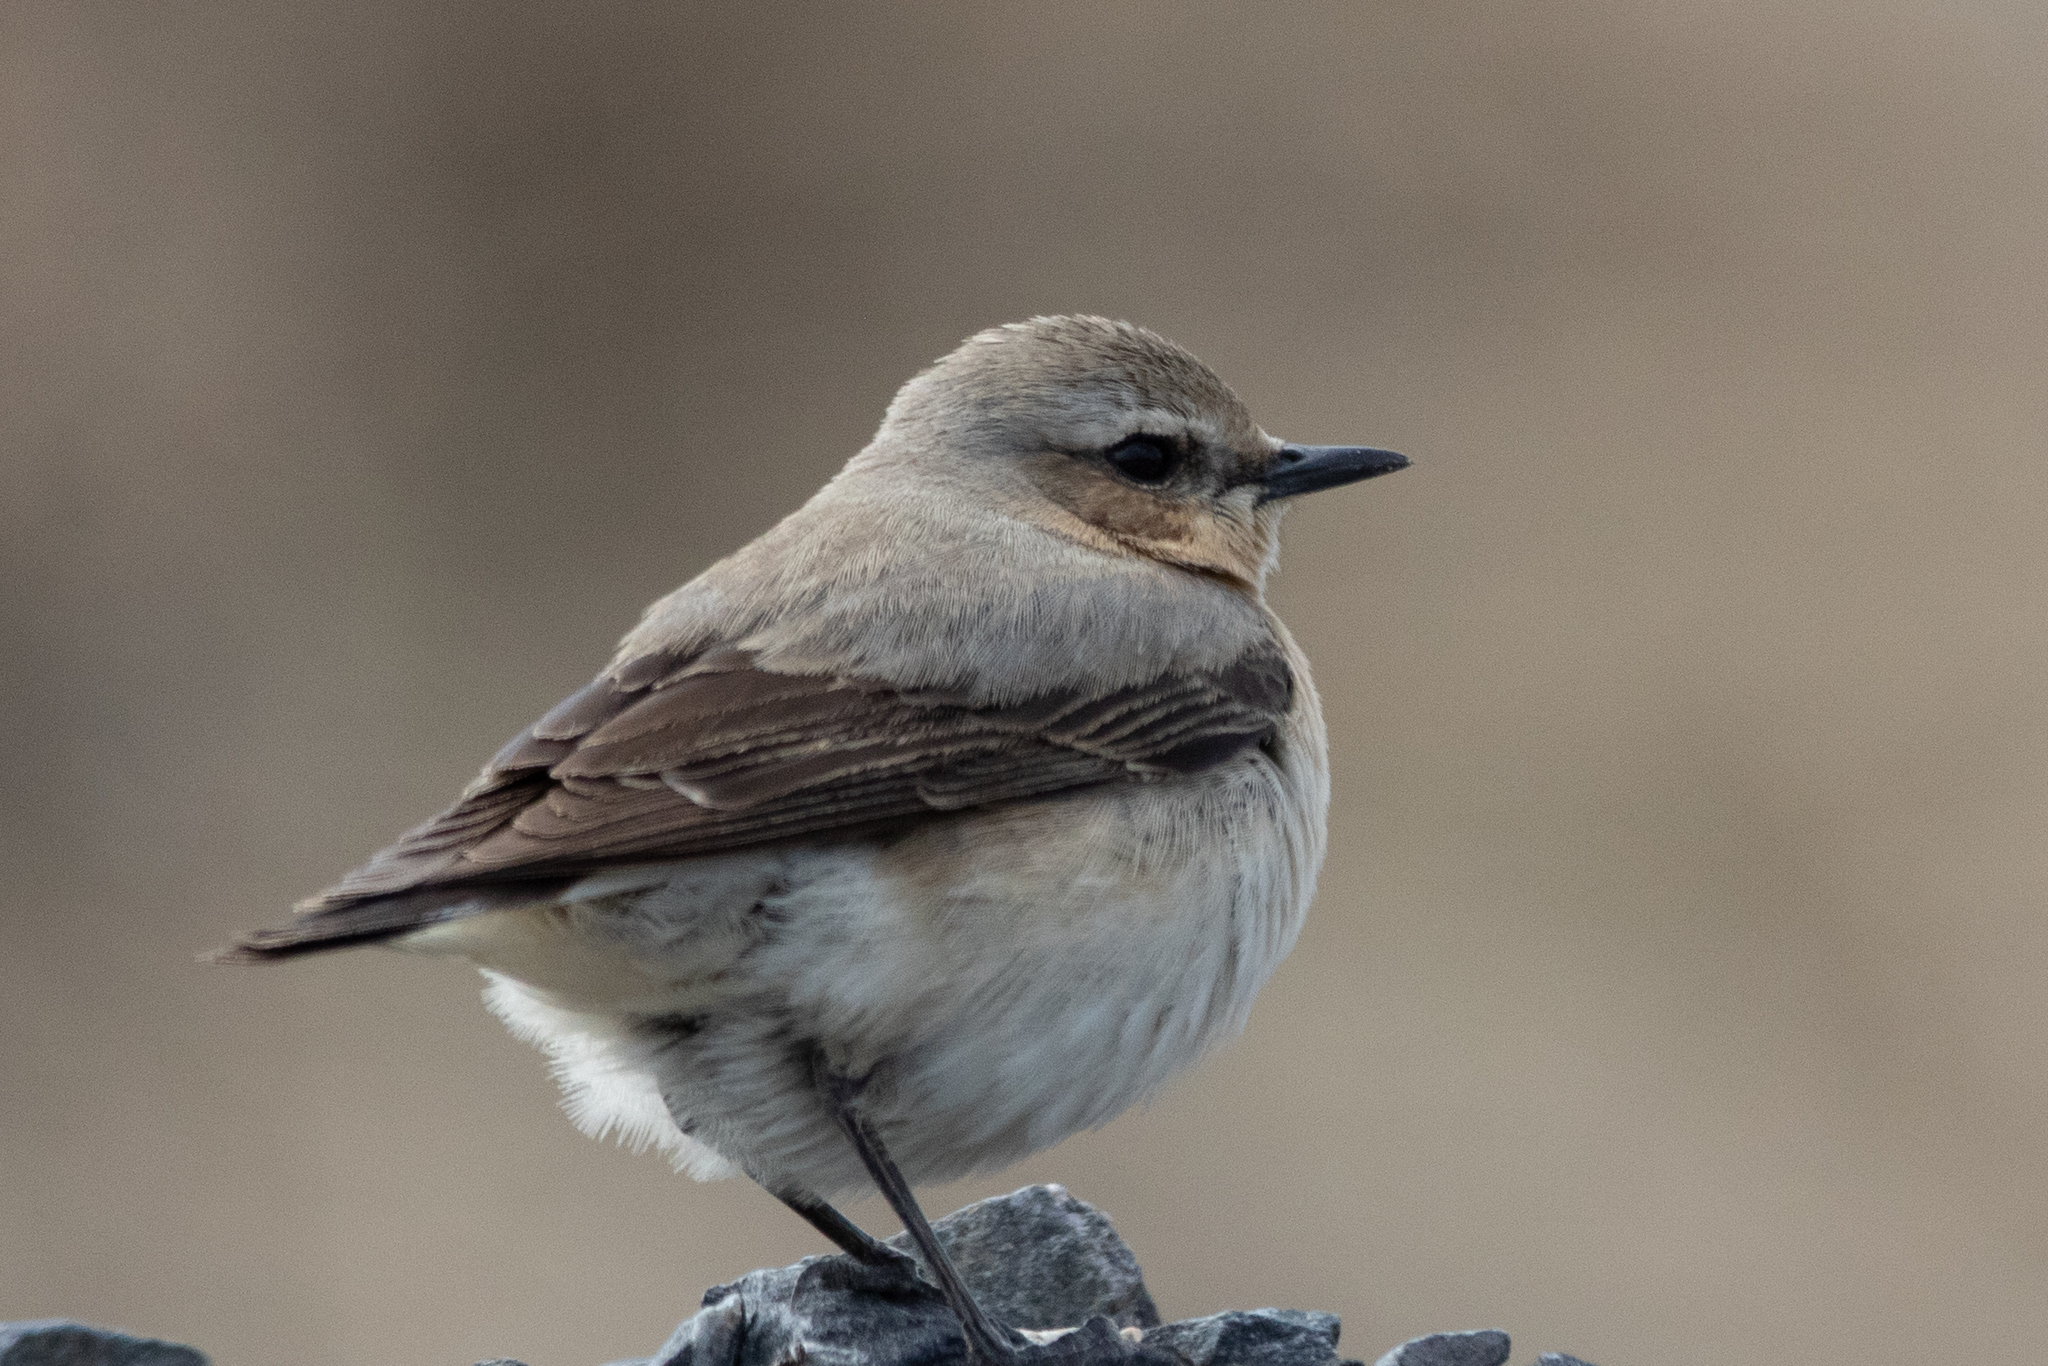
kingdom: Animalia
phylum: Chordata
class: Aves
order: Passeriformes
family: Muscicapidae
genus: Oenanthe
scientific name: Oenanthe oenanthe
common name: Northern wheatear
